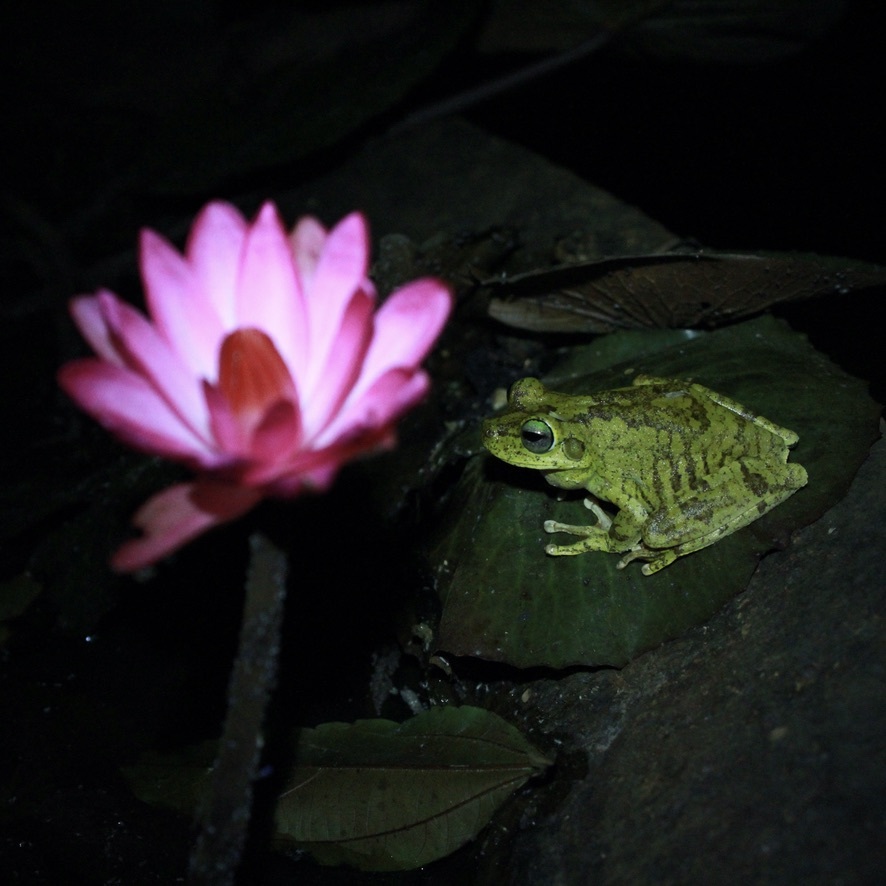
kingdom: Animalia
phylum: Chordata
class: Amphibia
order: Anura
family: Hylidae
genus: Boana
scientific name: Boana platanera
